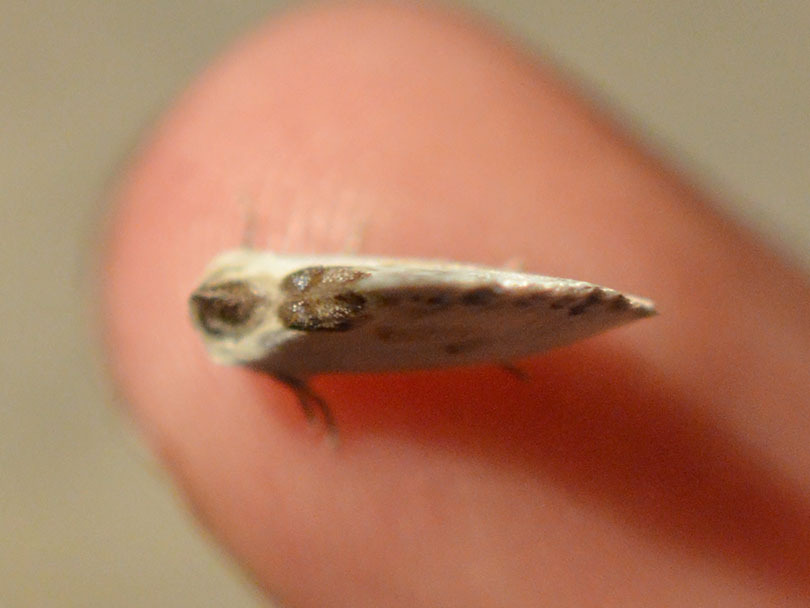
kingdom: Animalia
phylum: Arthropoda
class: Insecta
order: Lepidoptera
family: Drepanidae
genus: Cilix
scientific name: Cilix glaucata
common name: Chinese character
